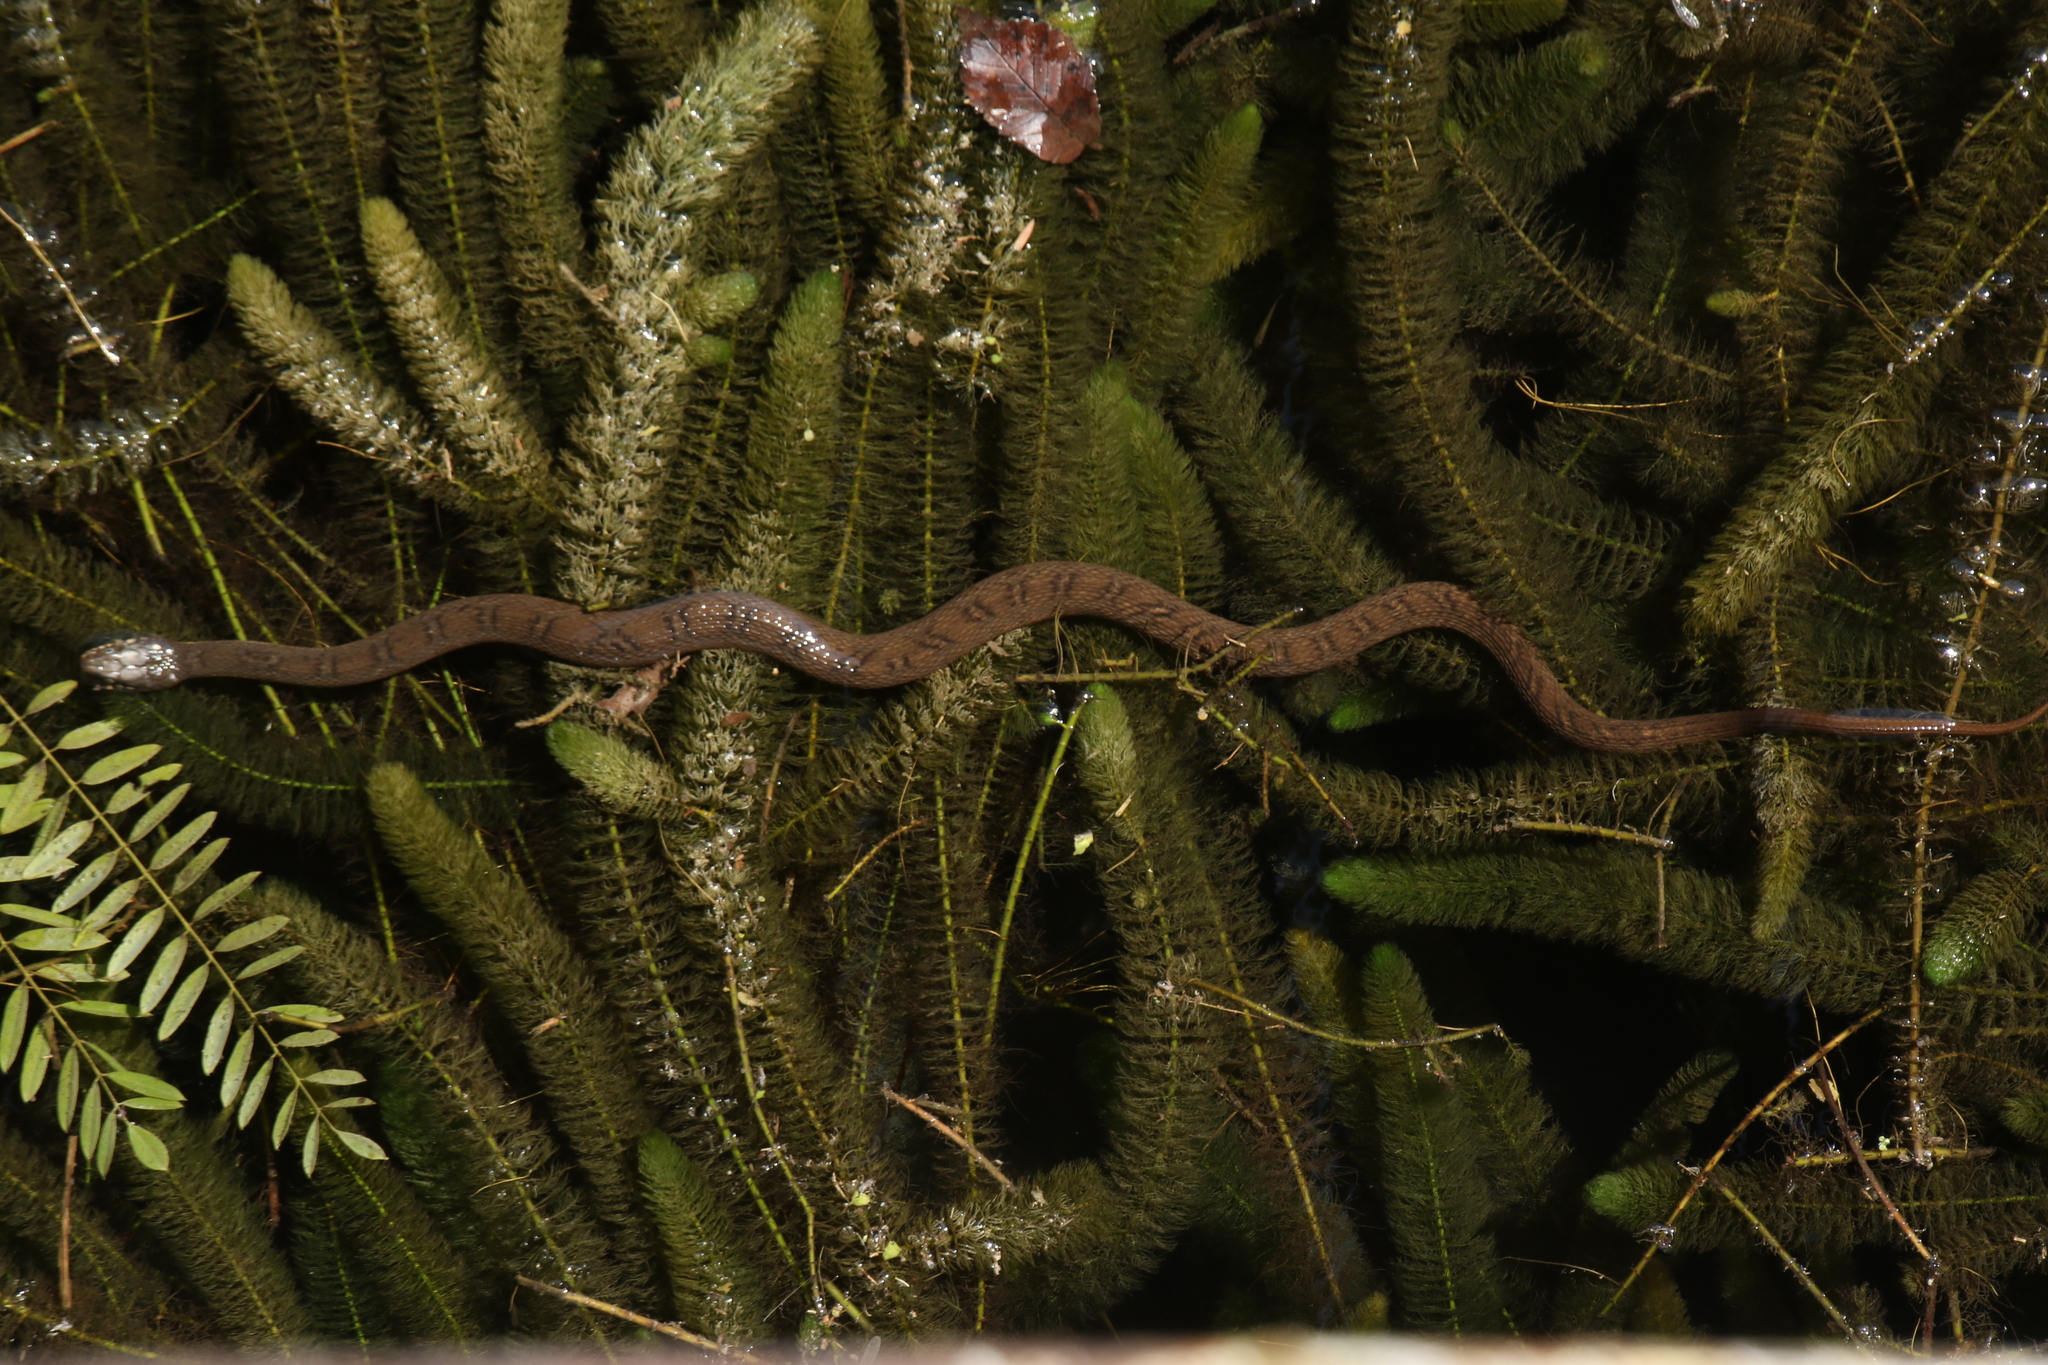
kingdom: Animalia
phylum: Chordata
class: Squamata
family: Colubridae
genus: Nerodia
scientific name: Nerodia erythrogaster
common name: Plainbelly water snake
